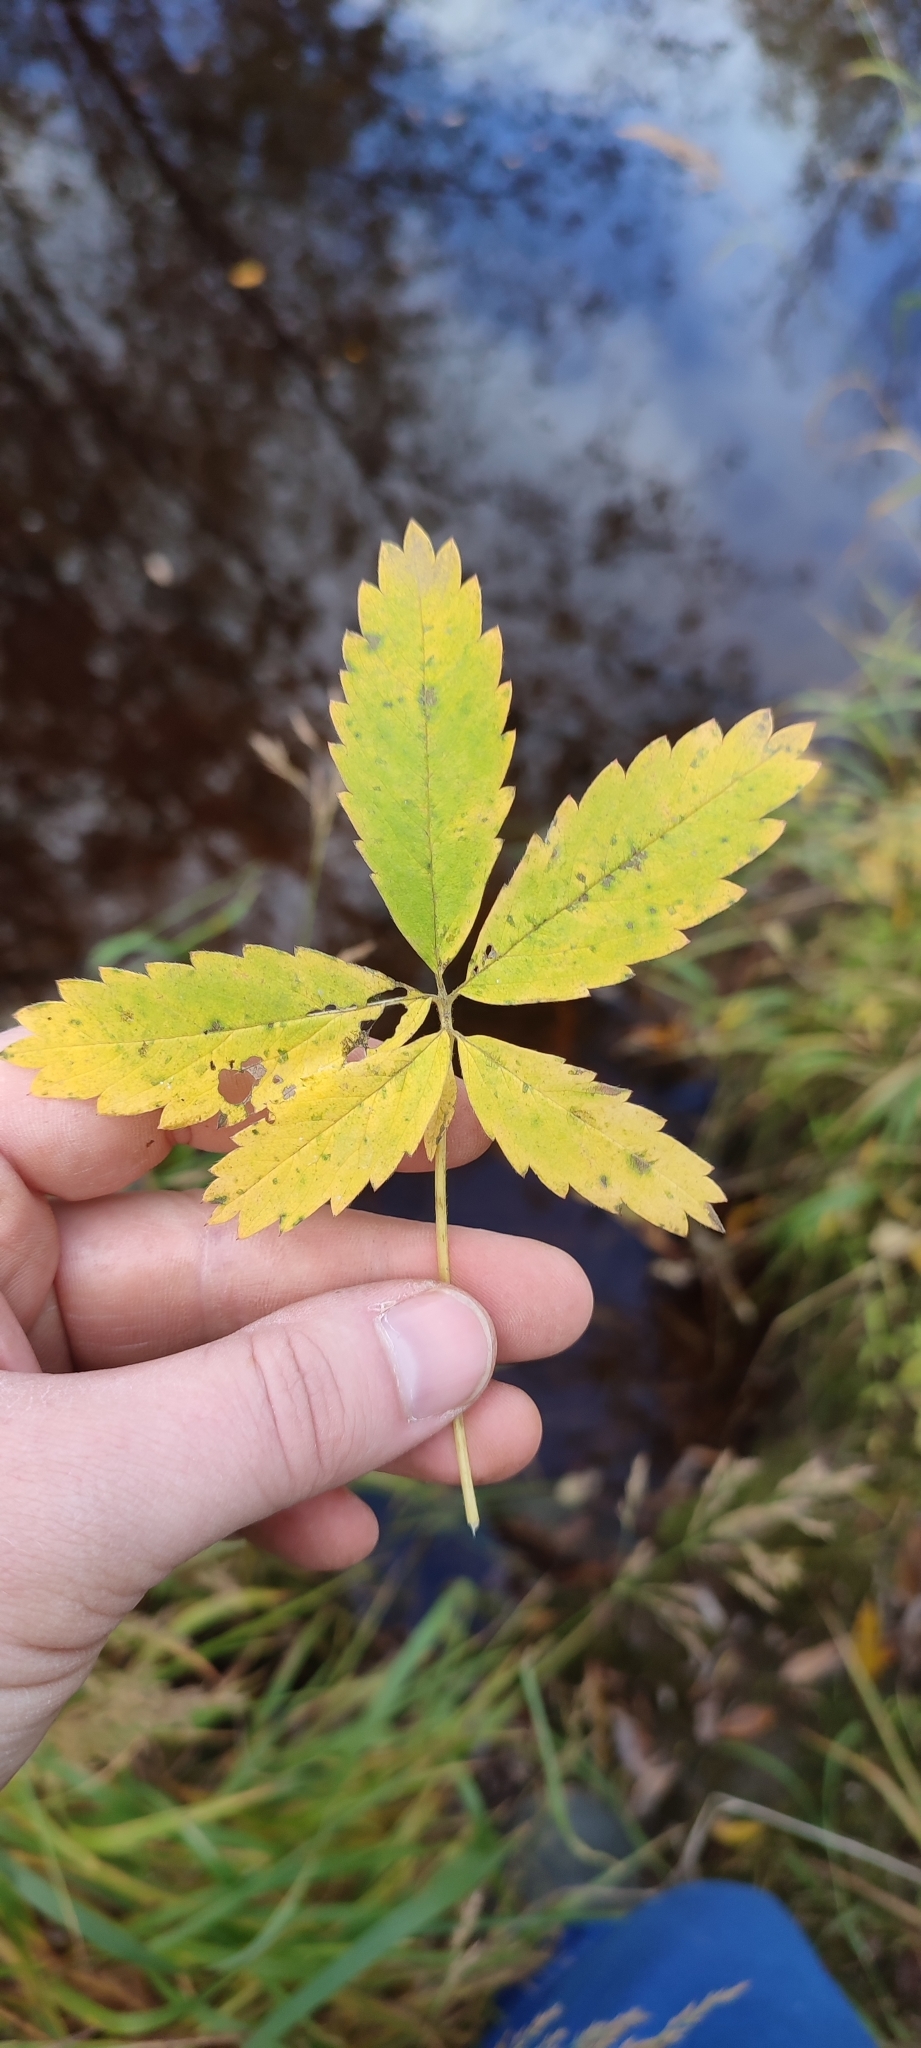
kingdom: Plantae
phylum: Tracheophyta
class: Magnoliopsida
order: Rosales
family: Rosaceae
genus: Comarum
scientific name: Comarum palustre
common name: Marsh cinquefoil
